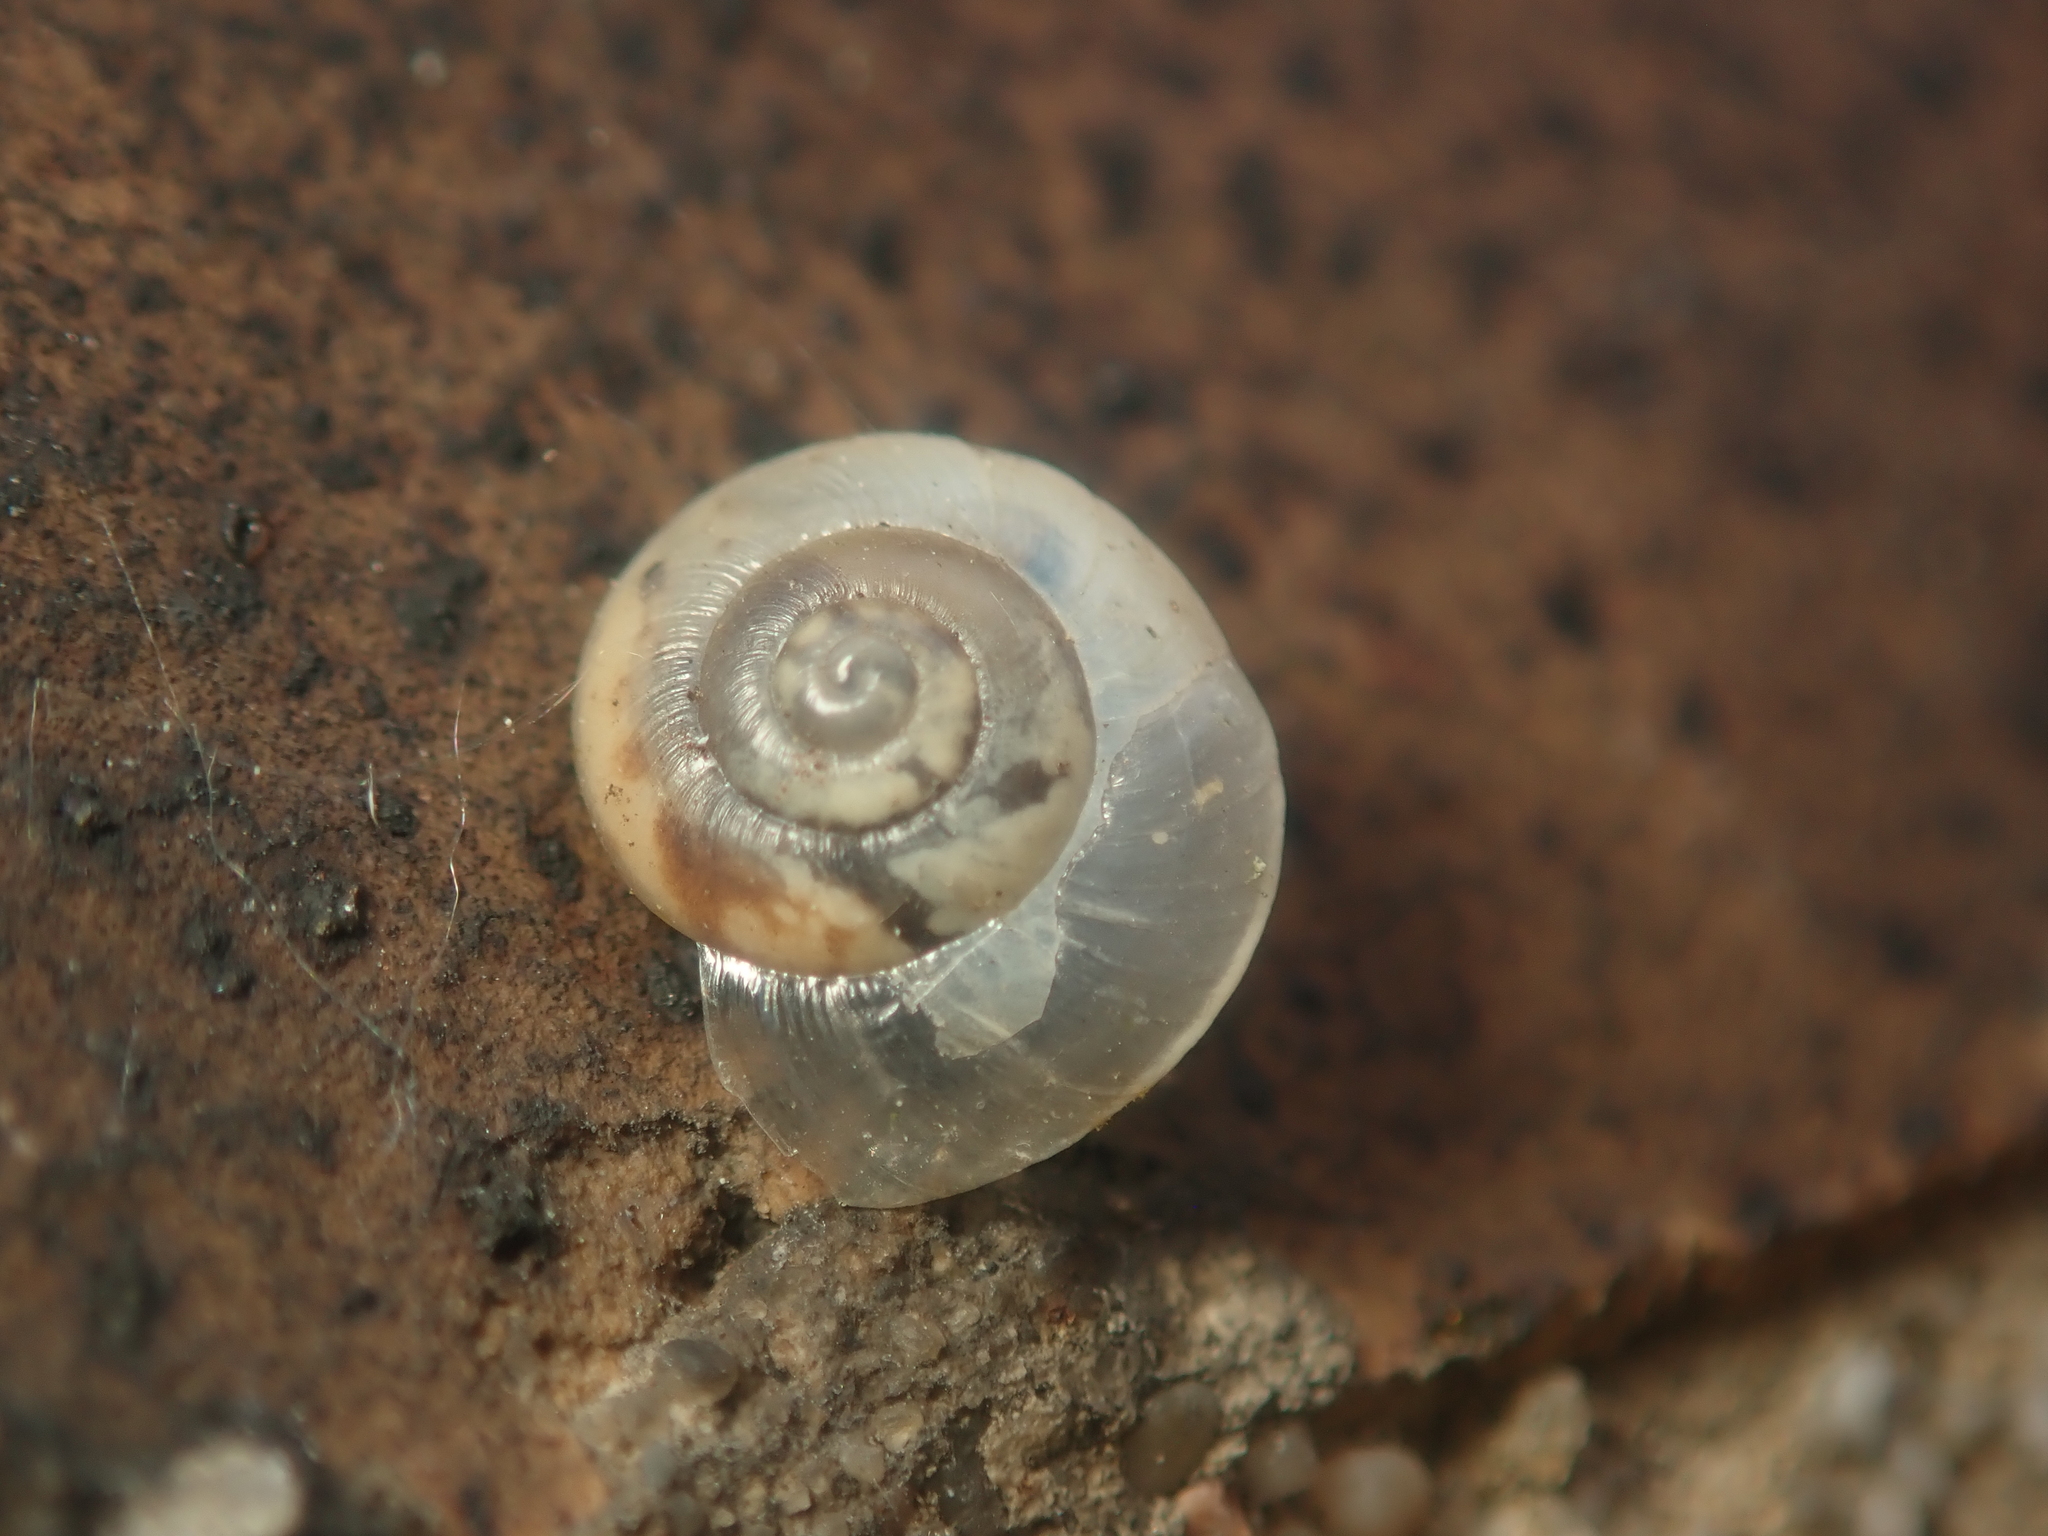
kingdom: Animalia
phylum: Mollusca
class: Gastropoda
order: Stylommatophora
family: Hygromiidae
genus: Hygromia
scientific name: Hygromia cinctella
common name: Girdled snail
